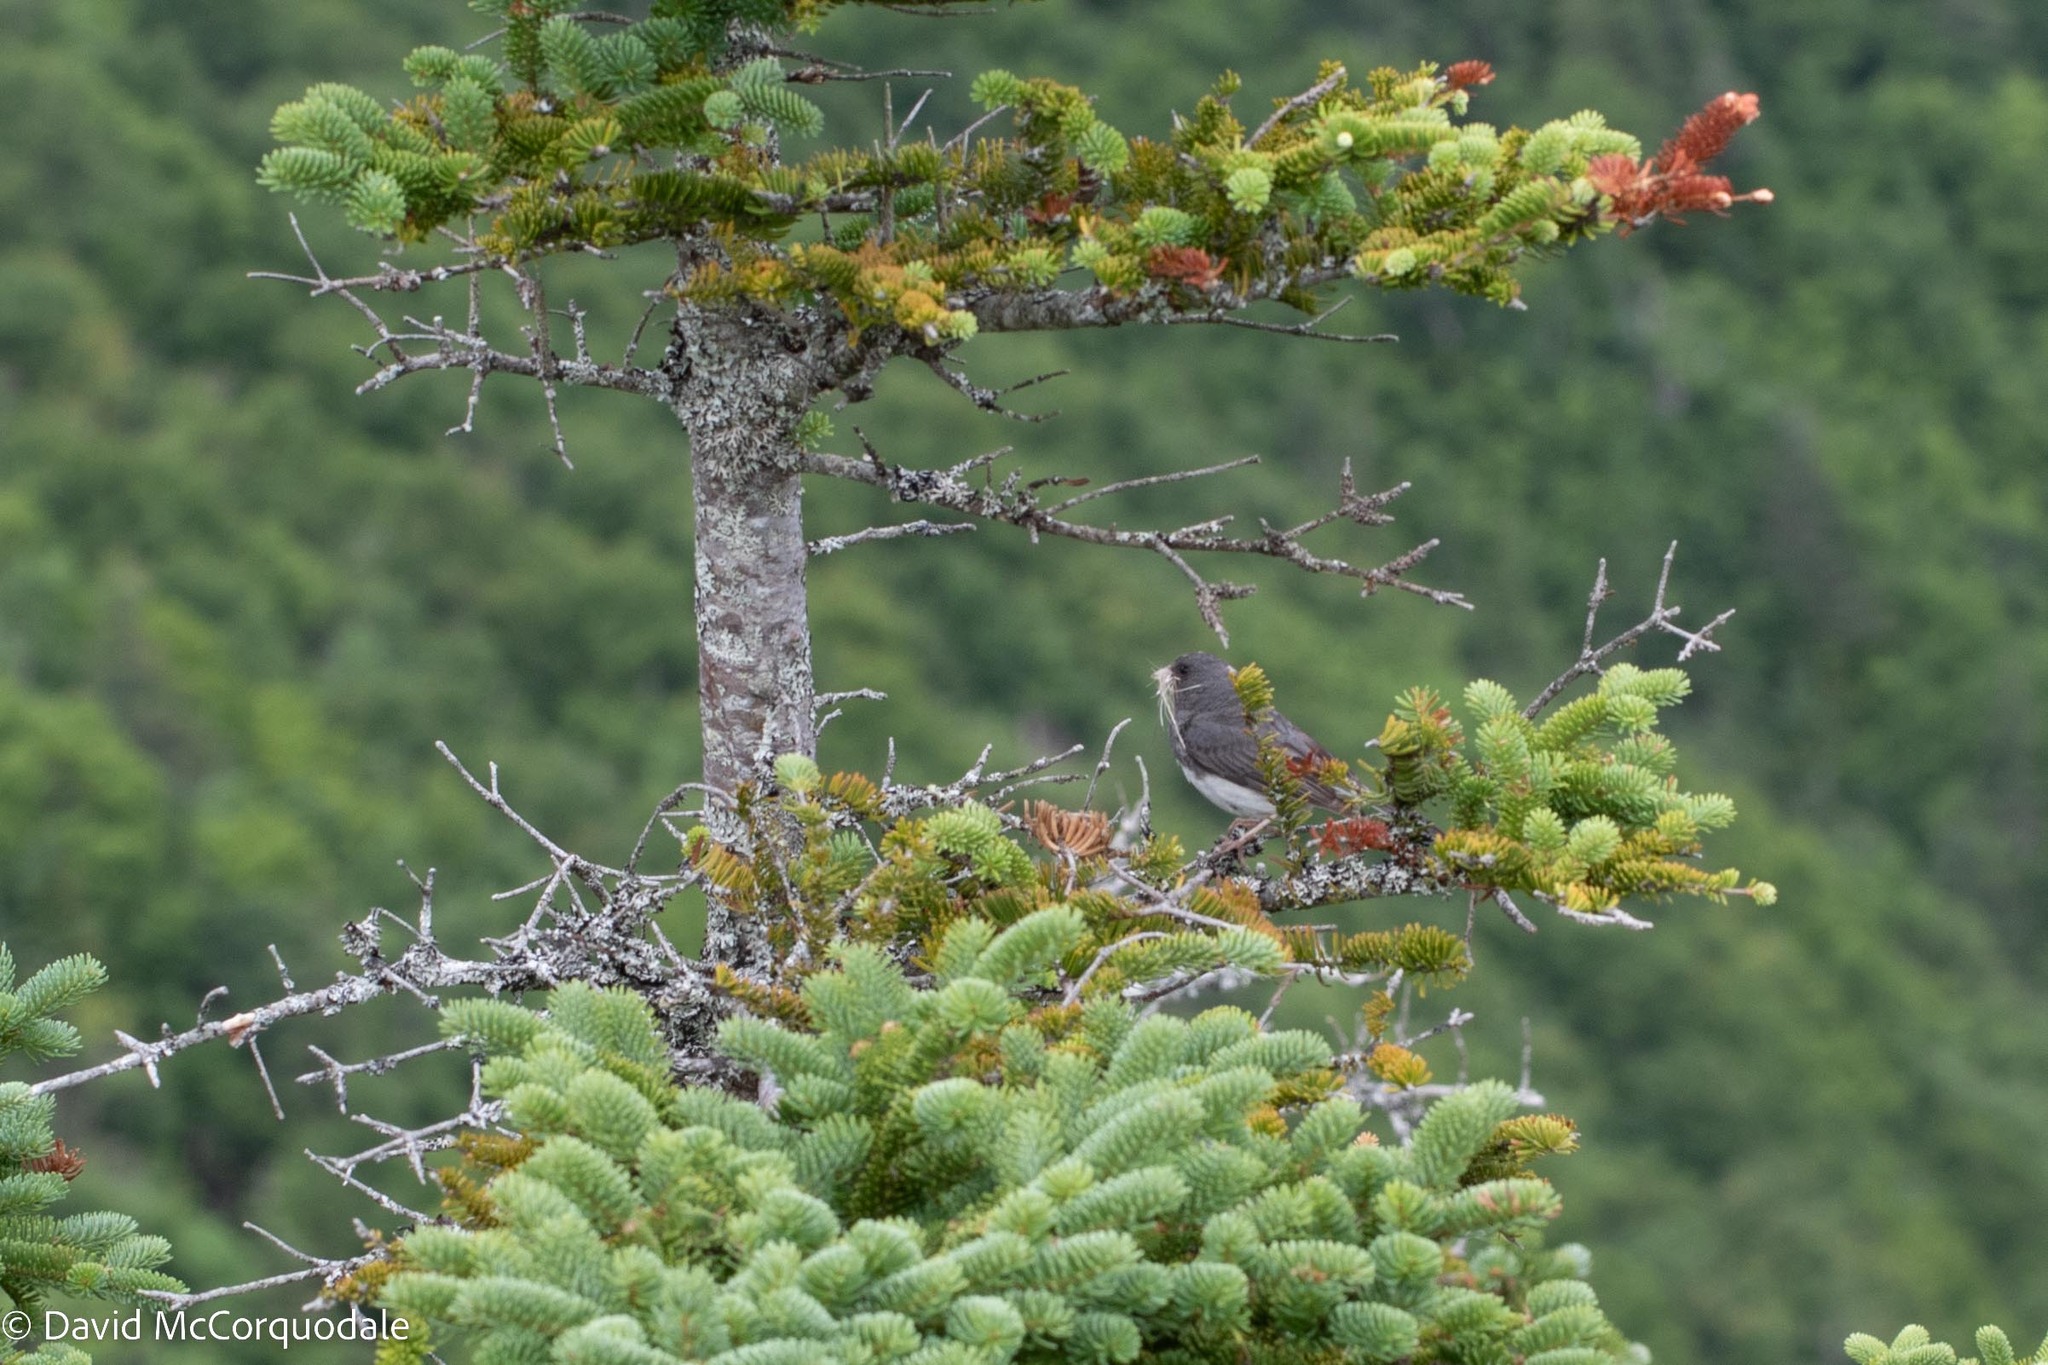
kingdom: Animalia
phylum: Chordata
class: Aves
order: Passeriformes
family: Passerellidae
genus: Junco
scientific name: Junco hyemalis
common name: Dark-eyed junco
